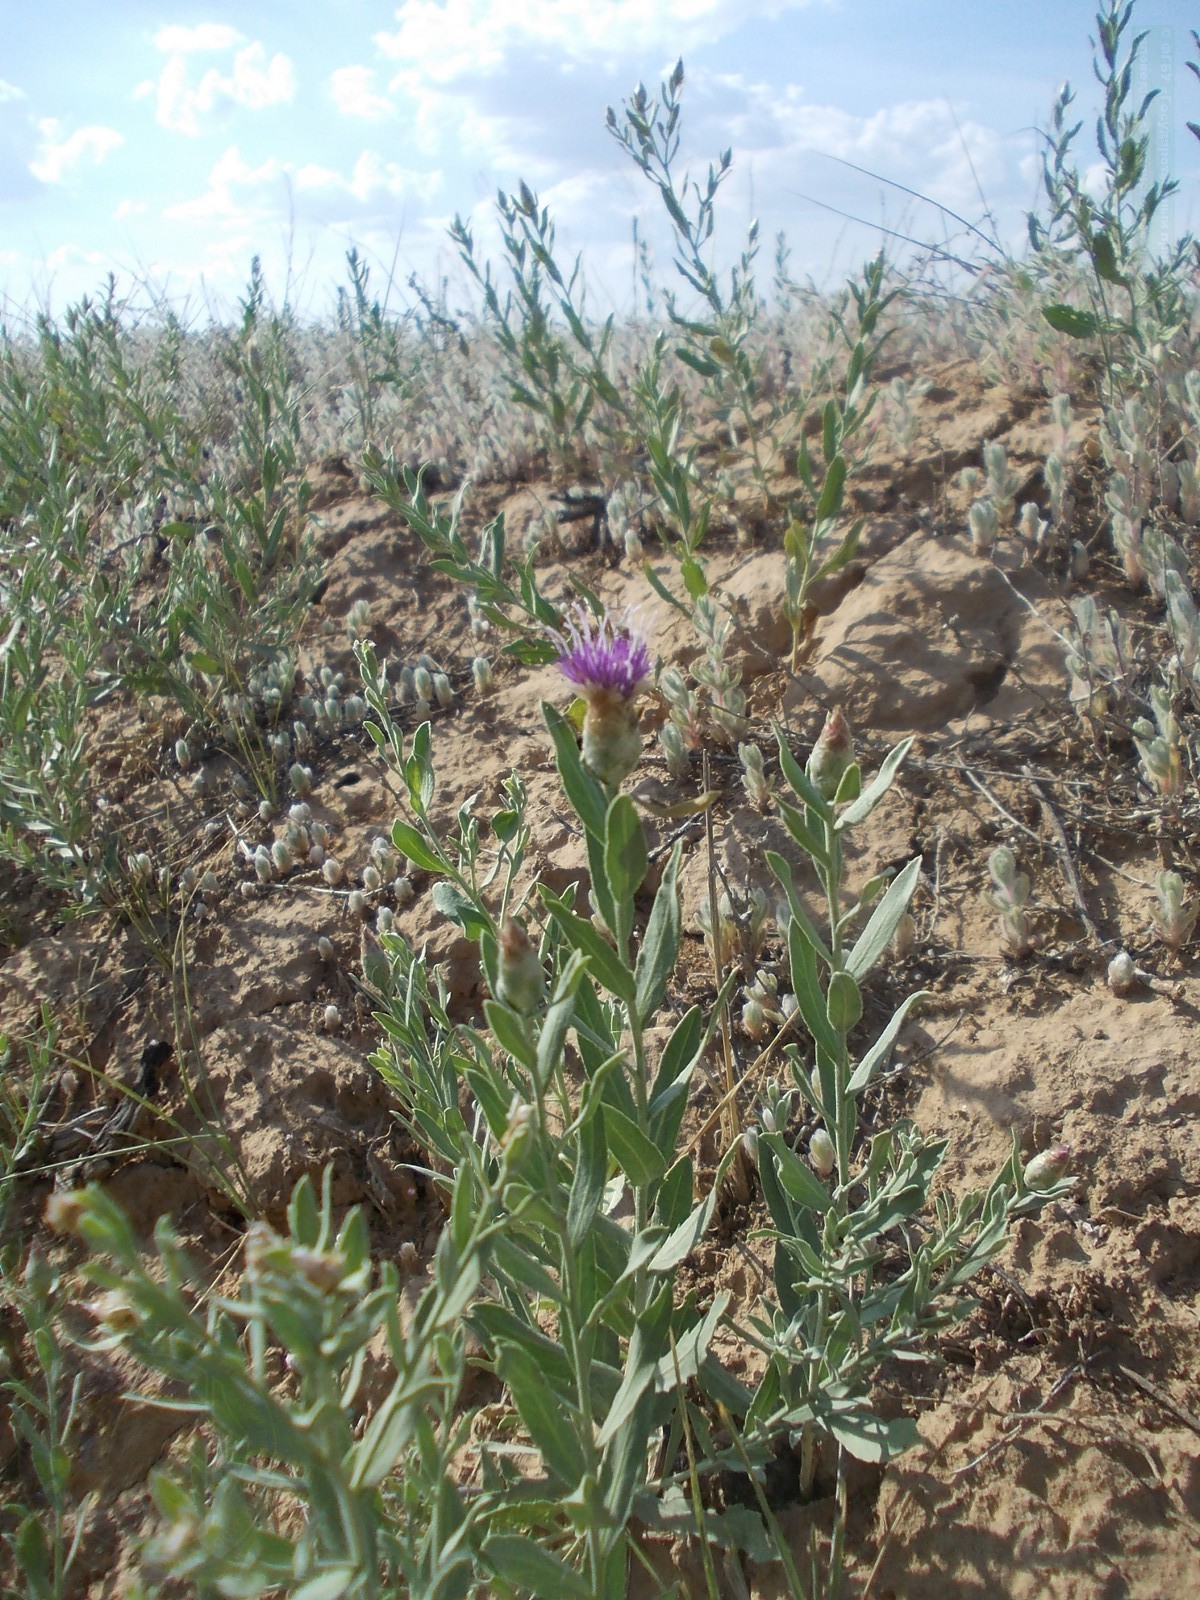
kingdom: Plantae
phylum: Tracheophyta
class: Magnoliopsida
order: Asterales
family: Asteraceae
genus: Leuzea
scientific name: Leuzea repens
